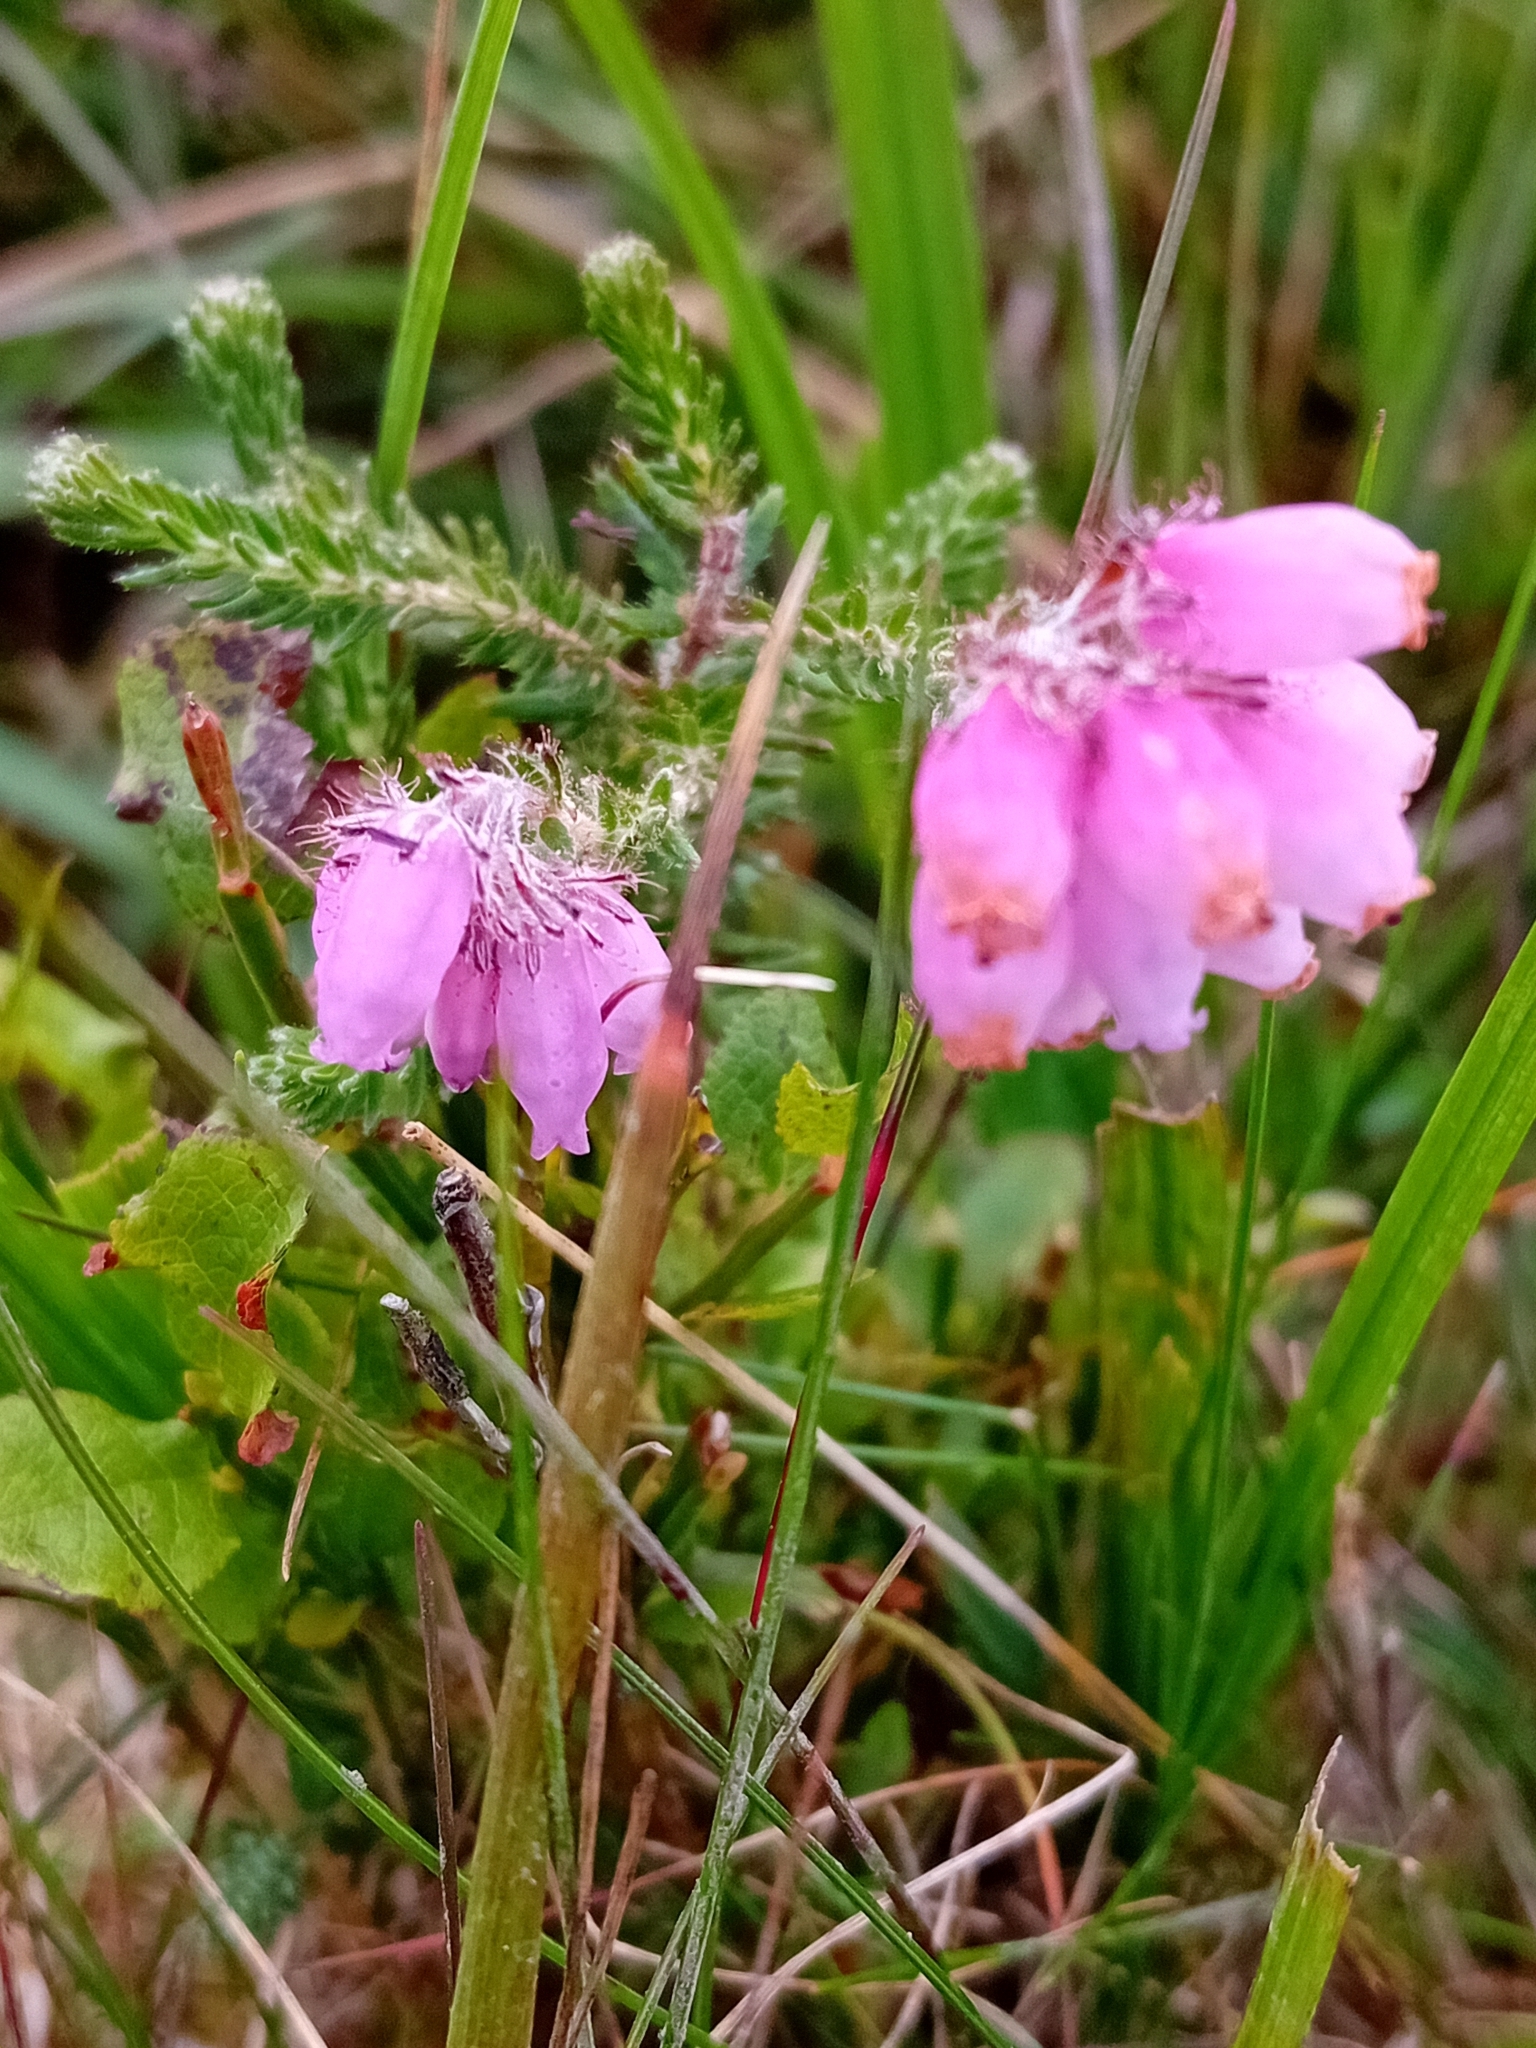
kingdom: Plantae
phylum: Tracheophyta
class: Magnoliopsida
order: Ericales
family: Ericaceae
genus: Erica
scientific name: Erica tetralix
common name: Cross-leaved heath
